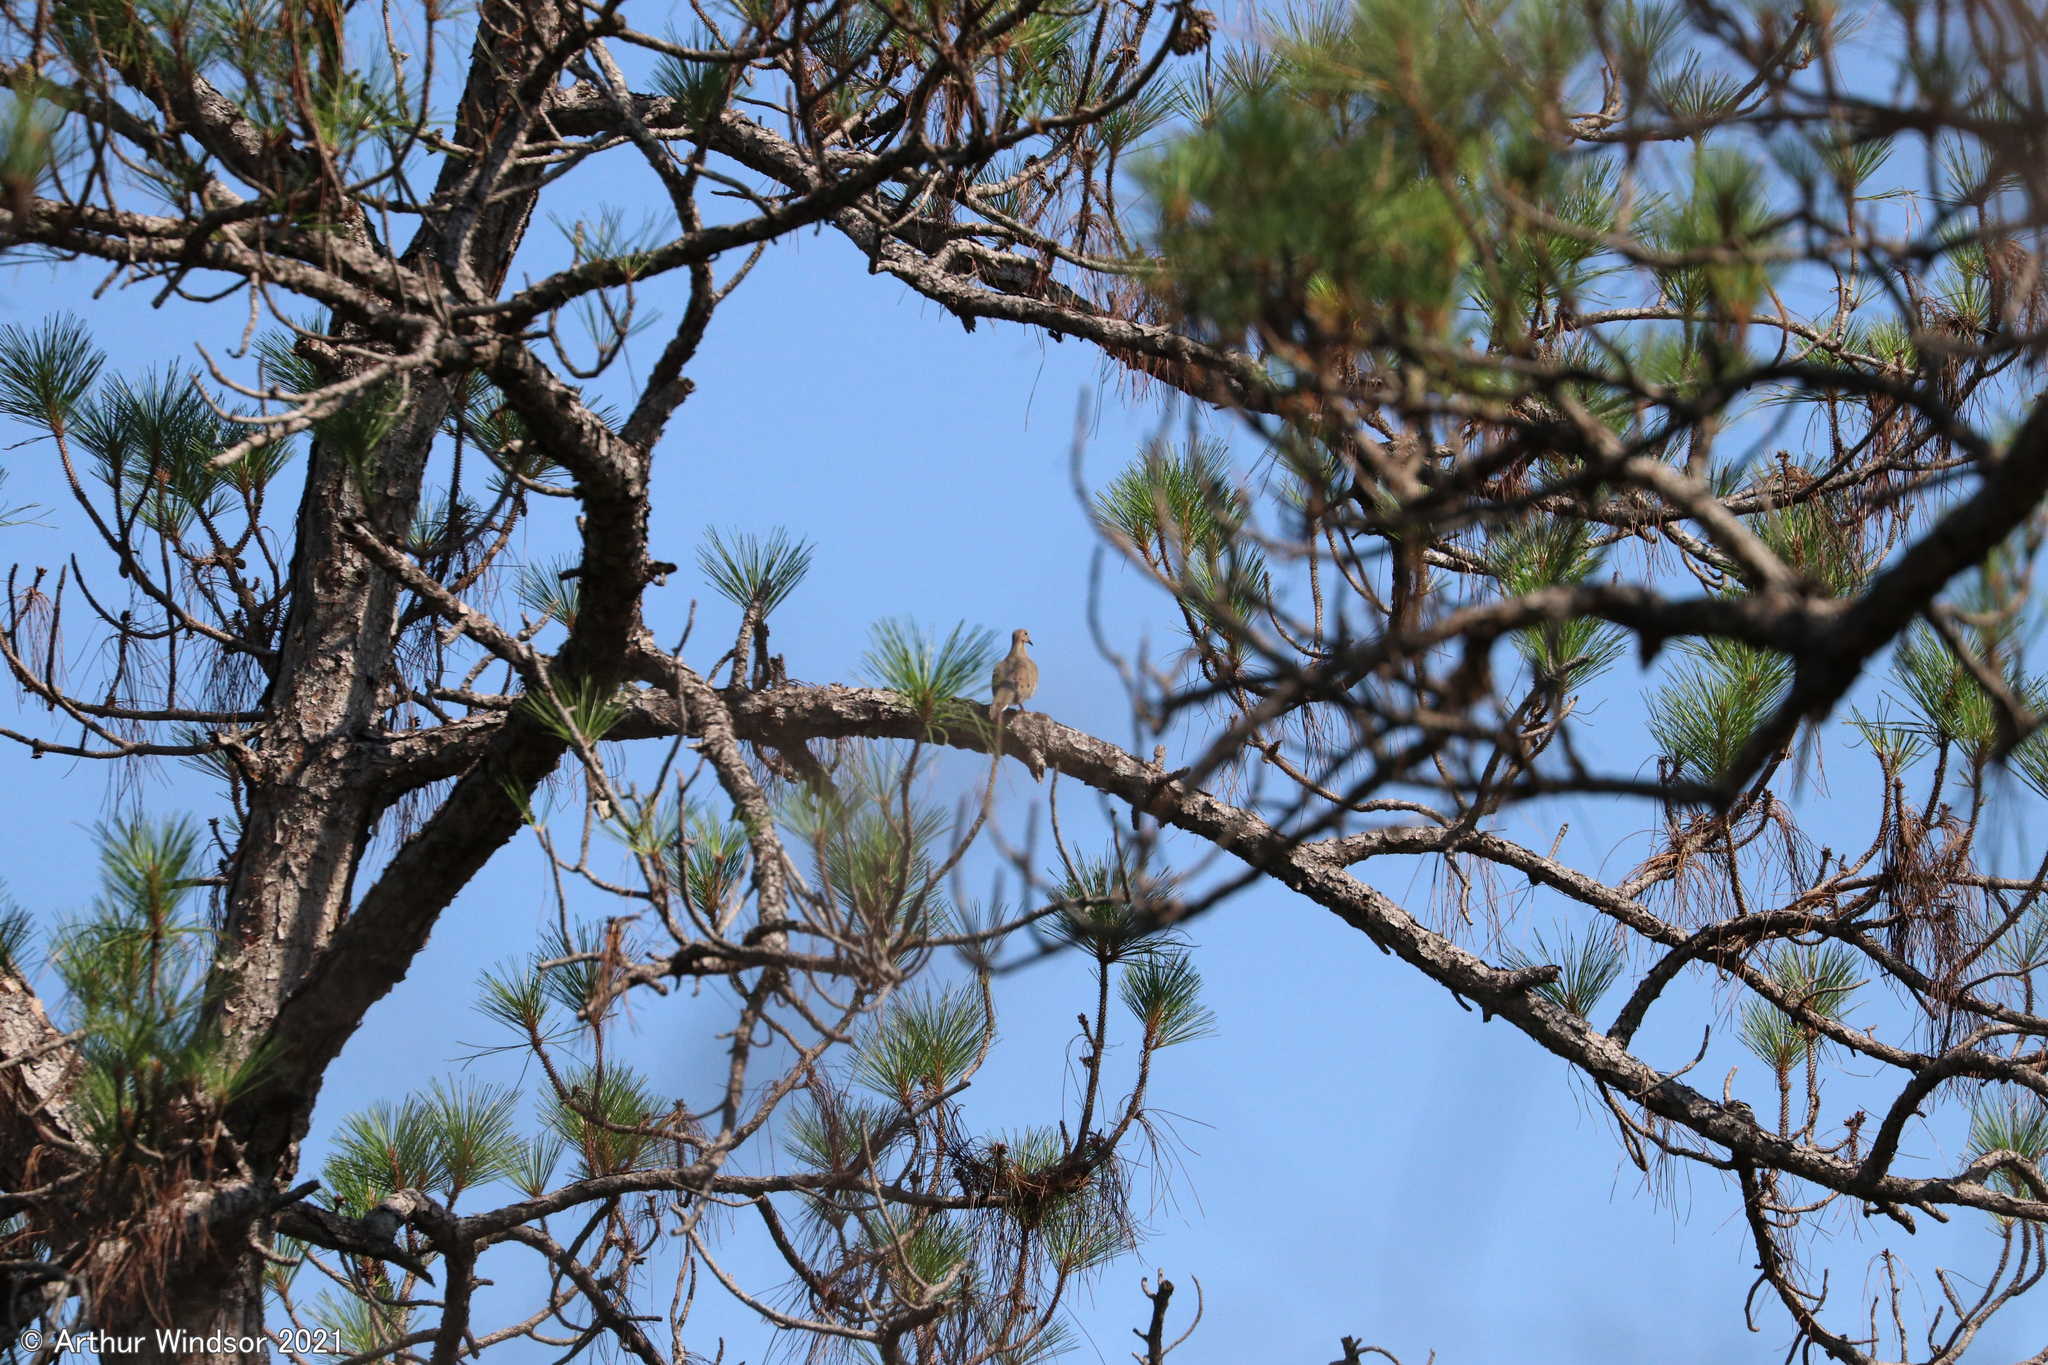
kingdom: Animalia
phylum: Chordata
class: Aves
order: Columbiformes
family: Columbidae
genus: Zenaida
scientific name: Zenaida macroura
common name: Mourning dove
